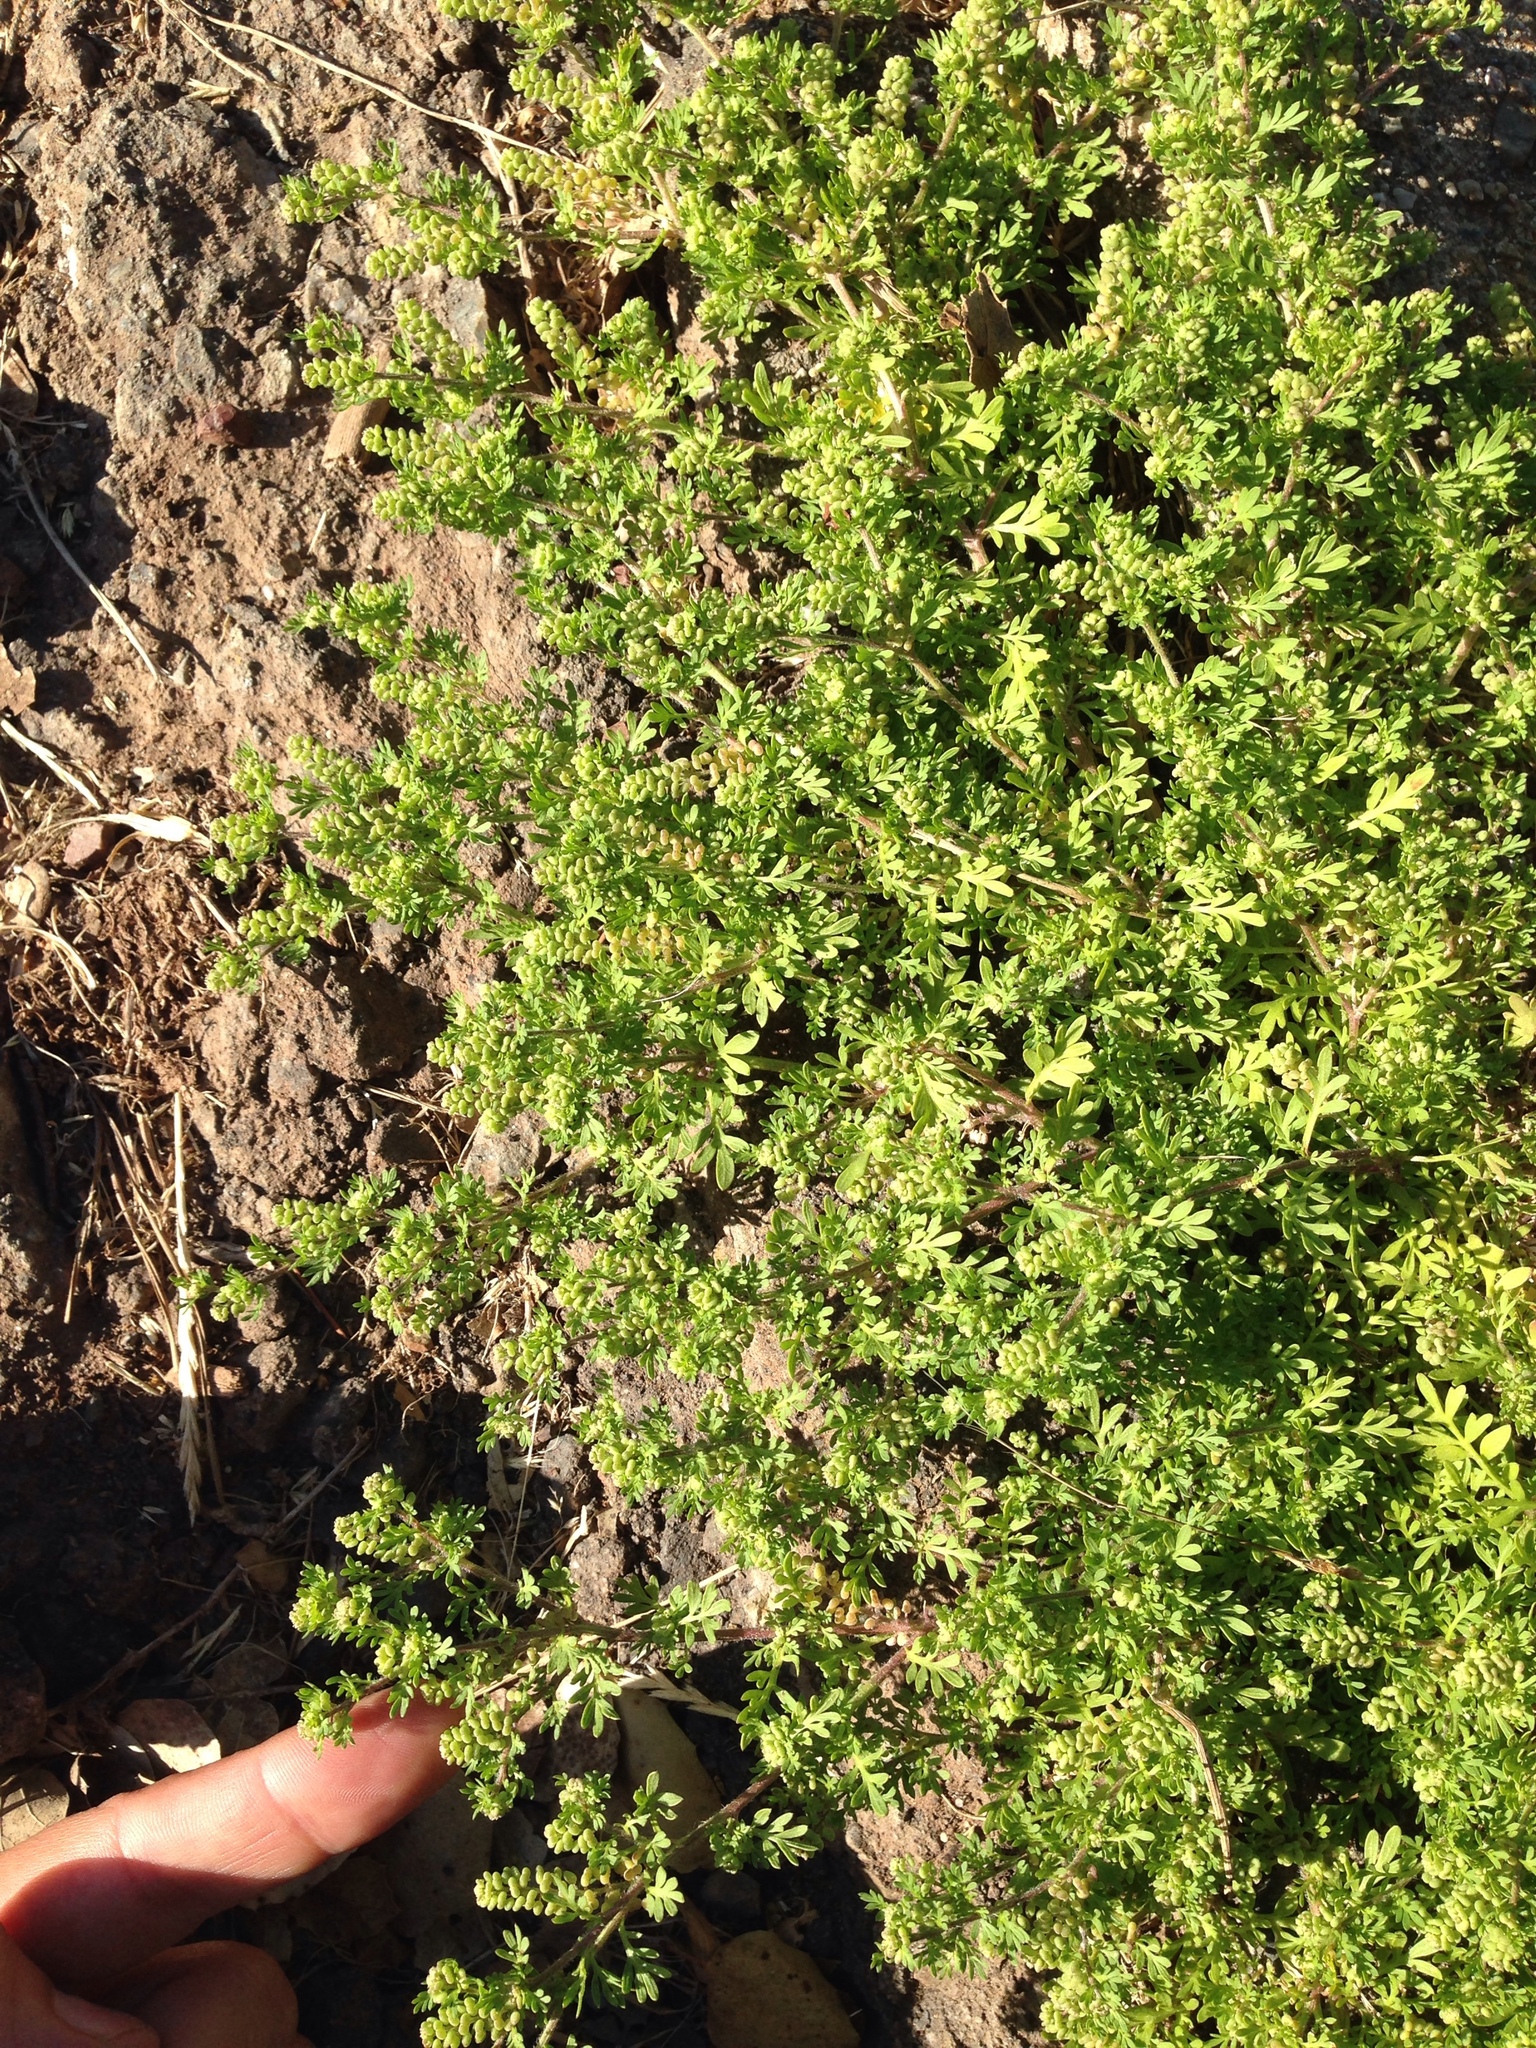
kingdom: Plantae
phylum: Tracheophyta
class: Magnoliopsida
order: Brassicales
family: Brassicaceae
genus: Lepidium
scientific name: Lepidium didymum
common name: Lesser swinecress
